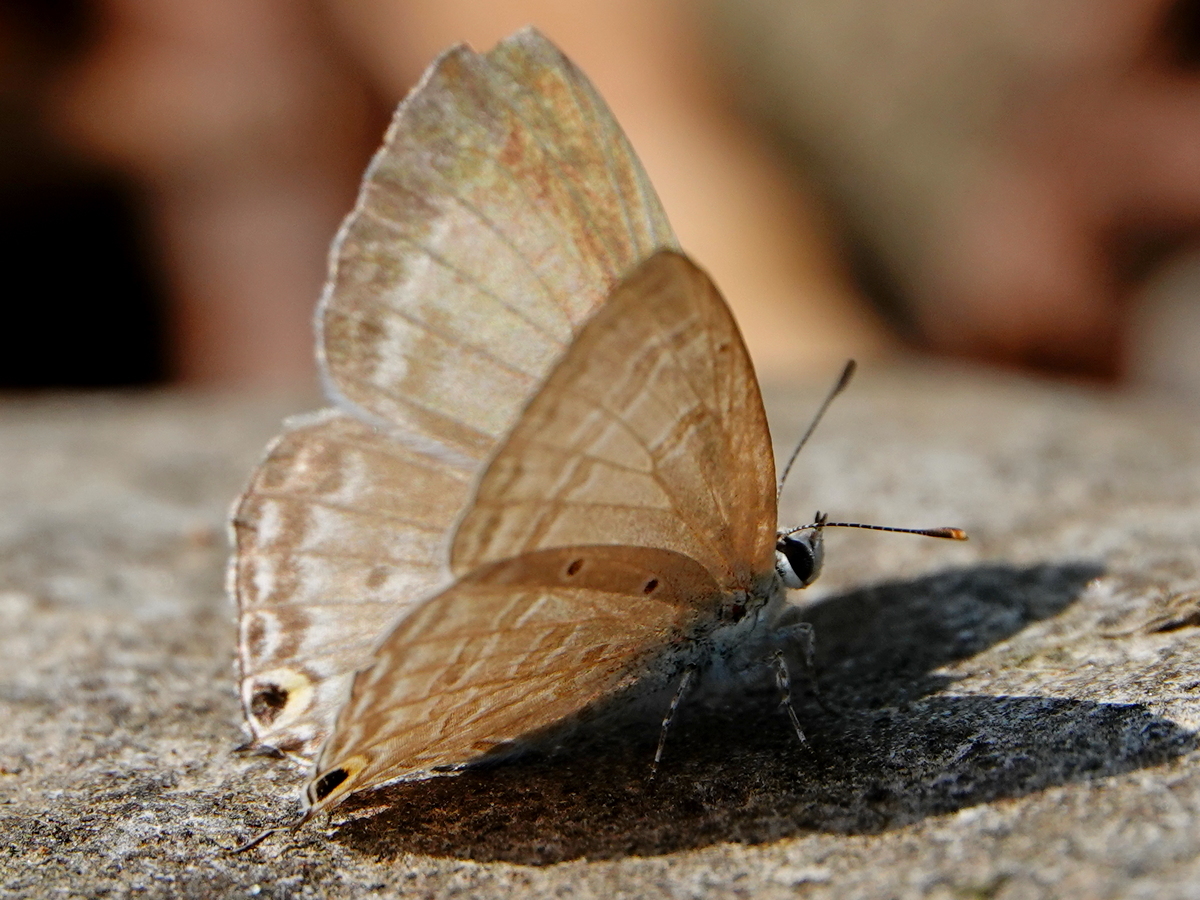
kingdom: Animalia
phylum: Arthropoda
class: Insecta
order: Lepidoptera
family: Lycaenidae
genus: Catochrysops
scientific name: Catochrysops strabo
